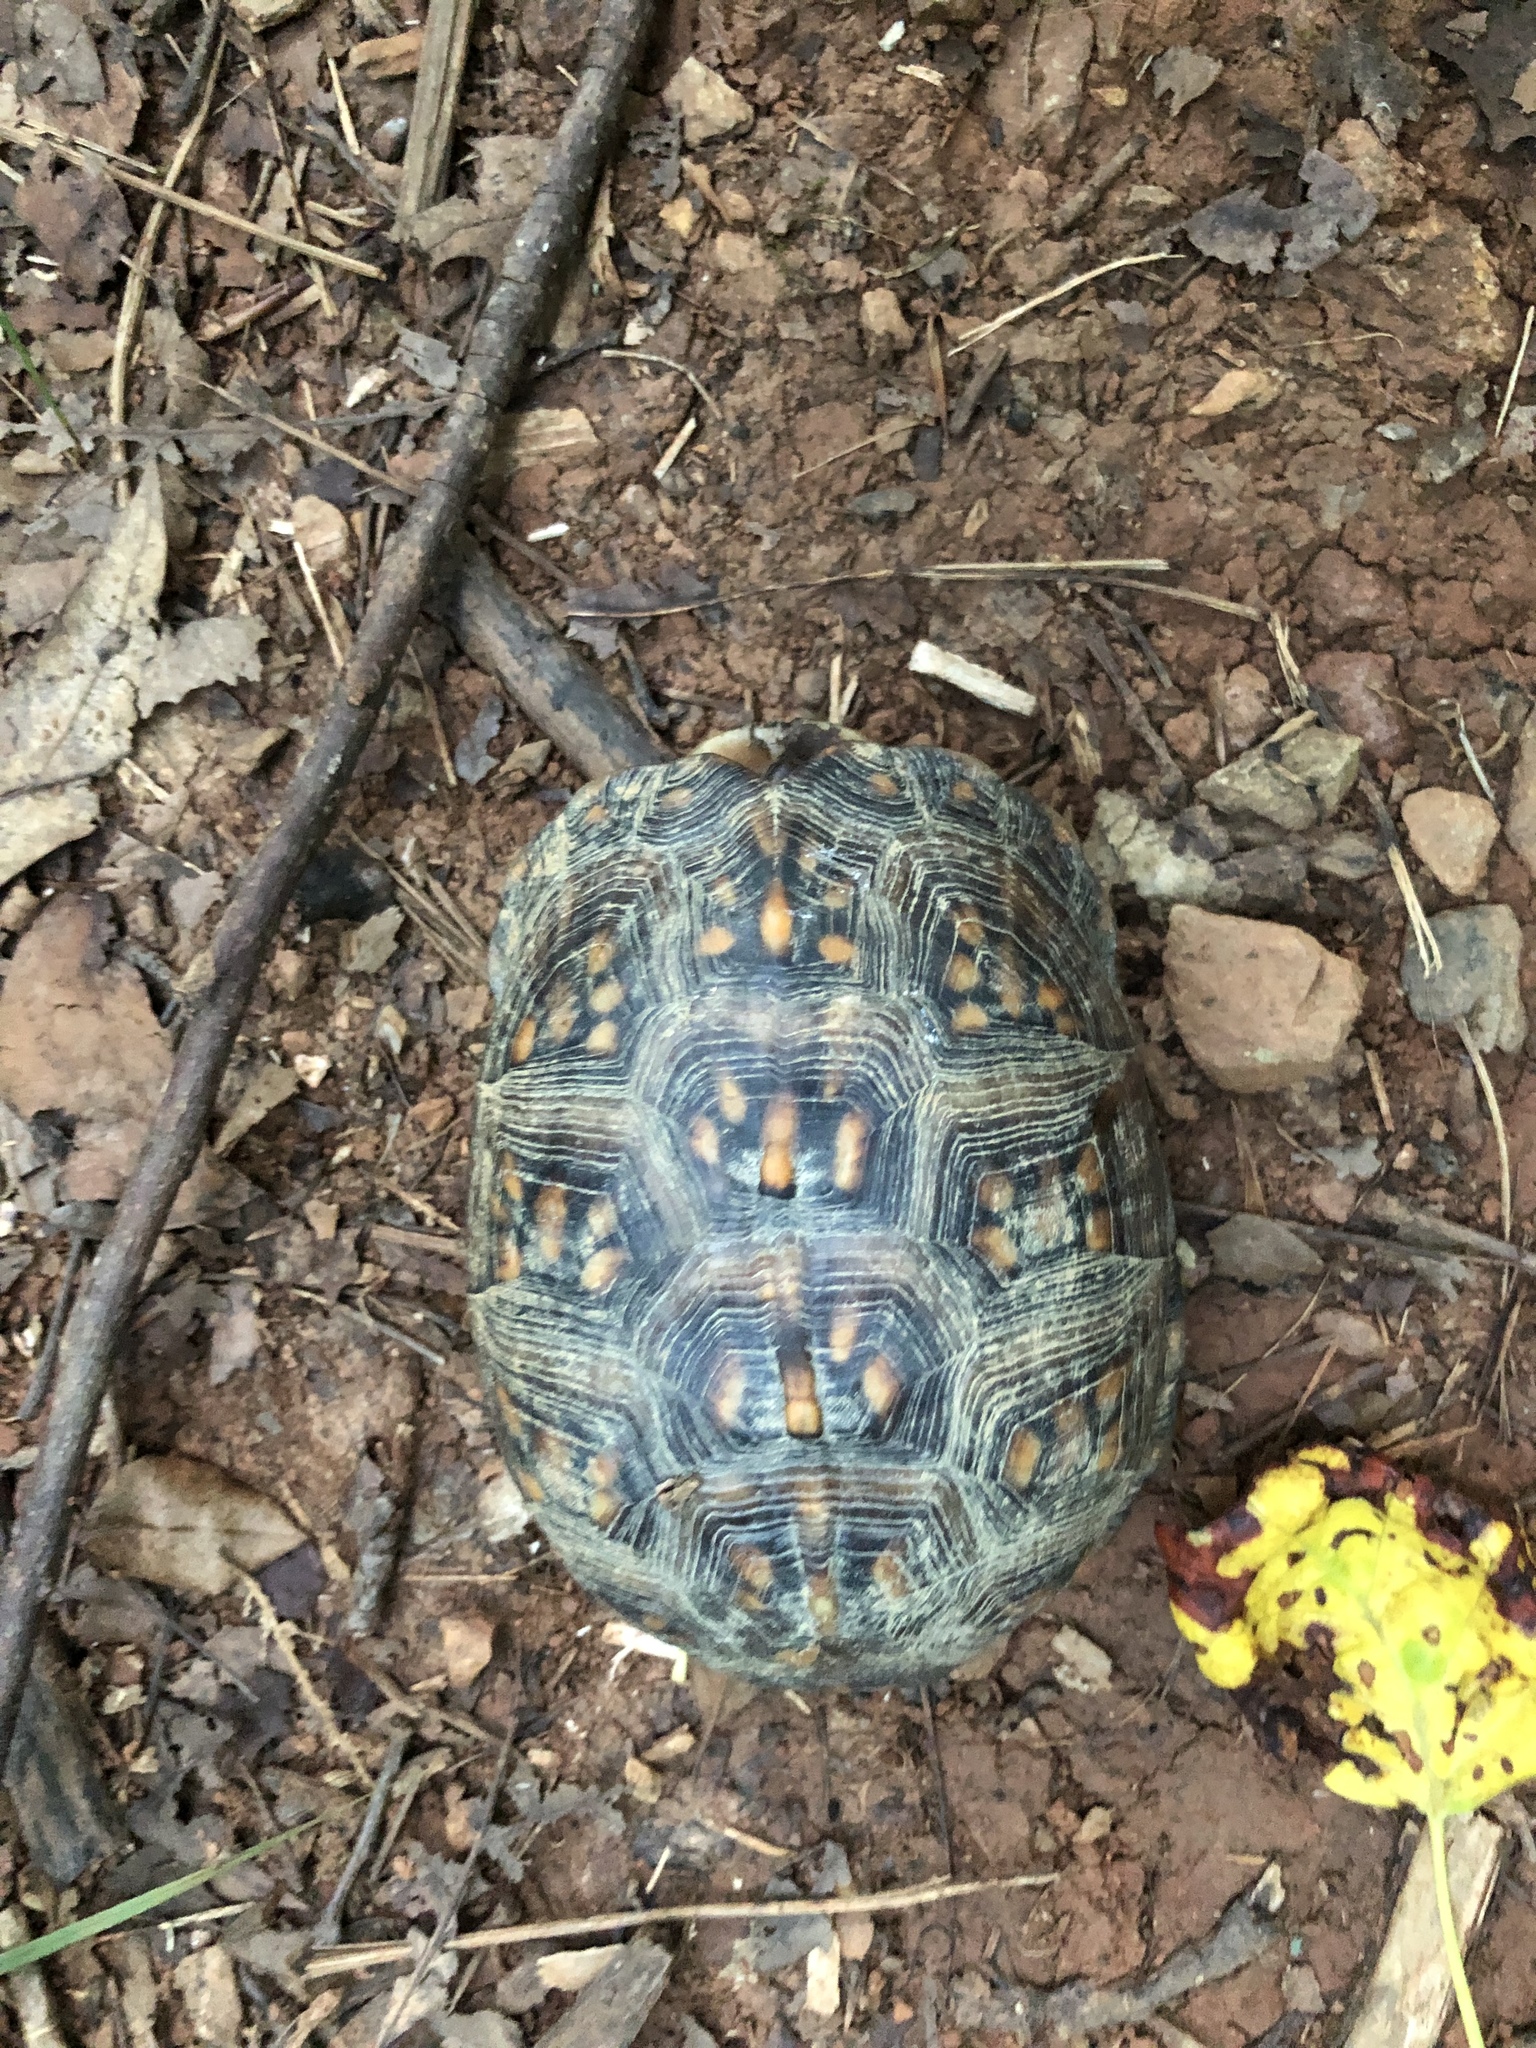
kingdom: Animalia
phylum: Chordata
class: Testudines
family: Emydidae
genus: Terrapene
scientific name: Terrapene carolina
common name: Common box turtle
